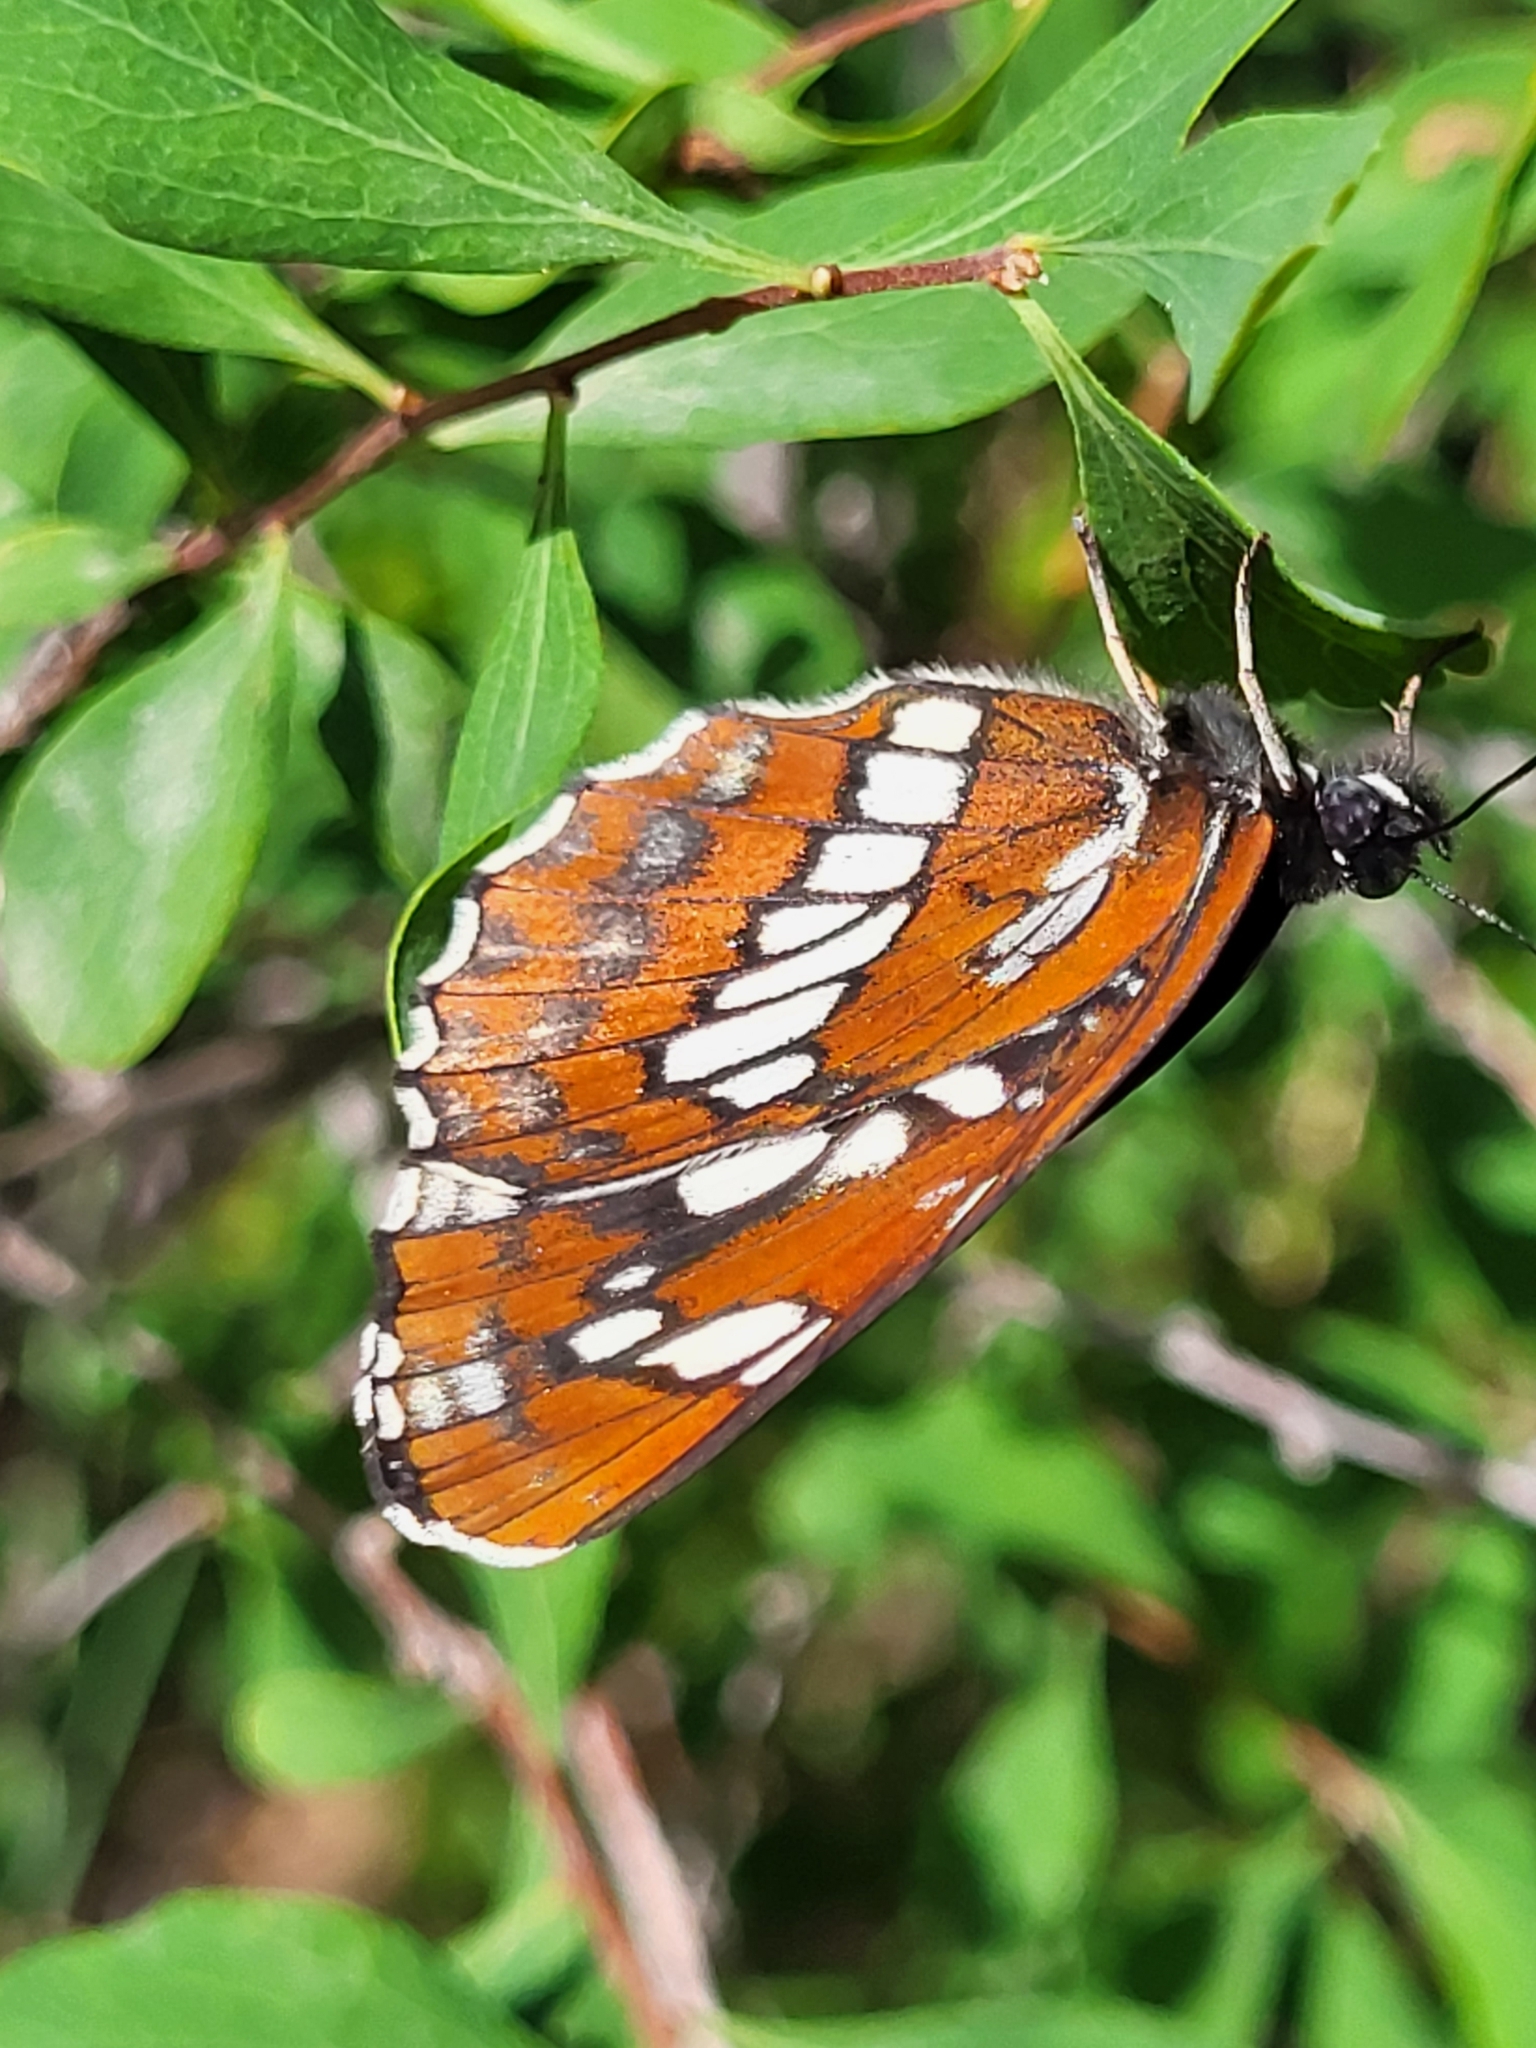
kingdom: Animalia
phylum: Arthropoda
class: Insecta
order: Lepidoptera
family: Nymphalidae
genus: Neptis
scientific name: Neptis rivularis
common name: Hungarian glider
